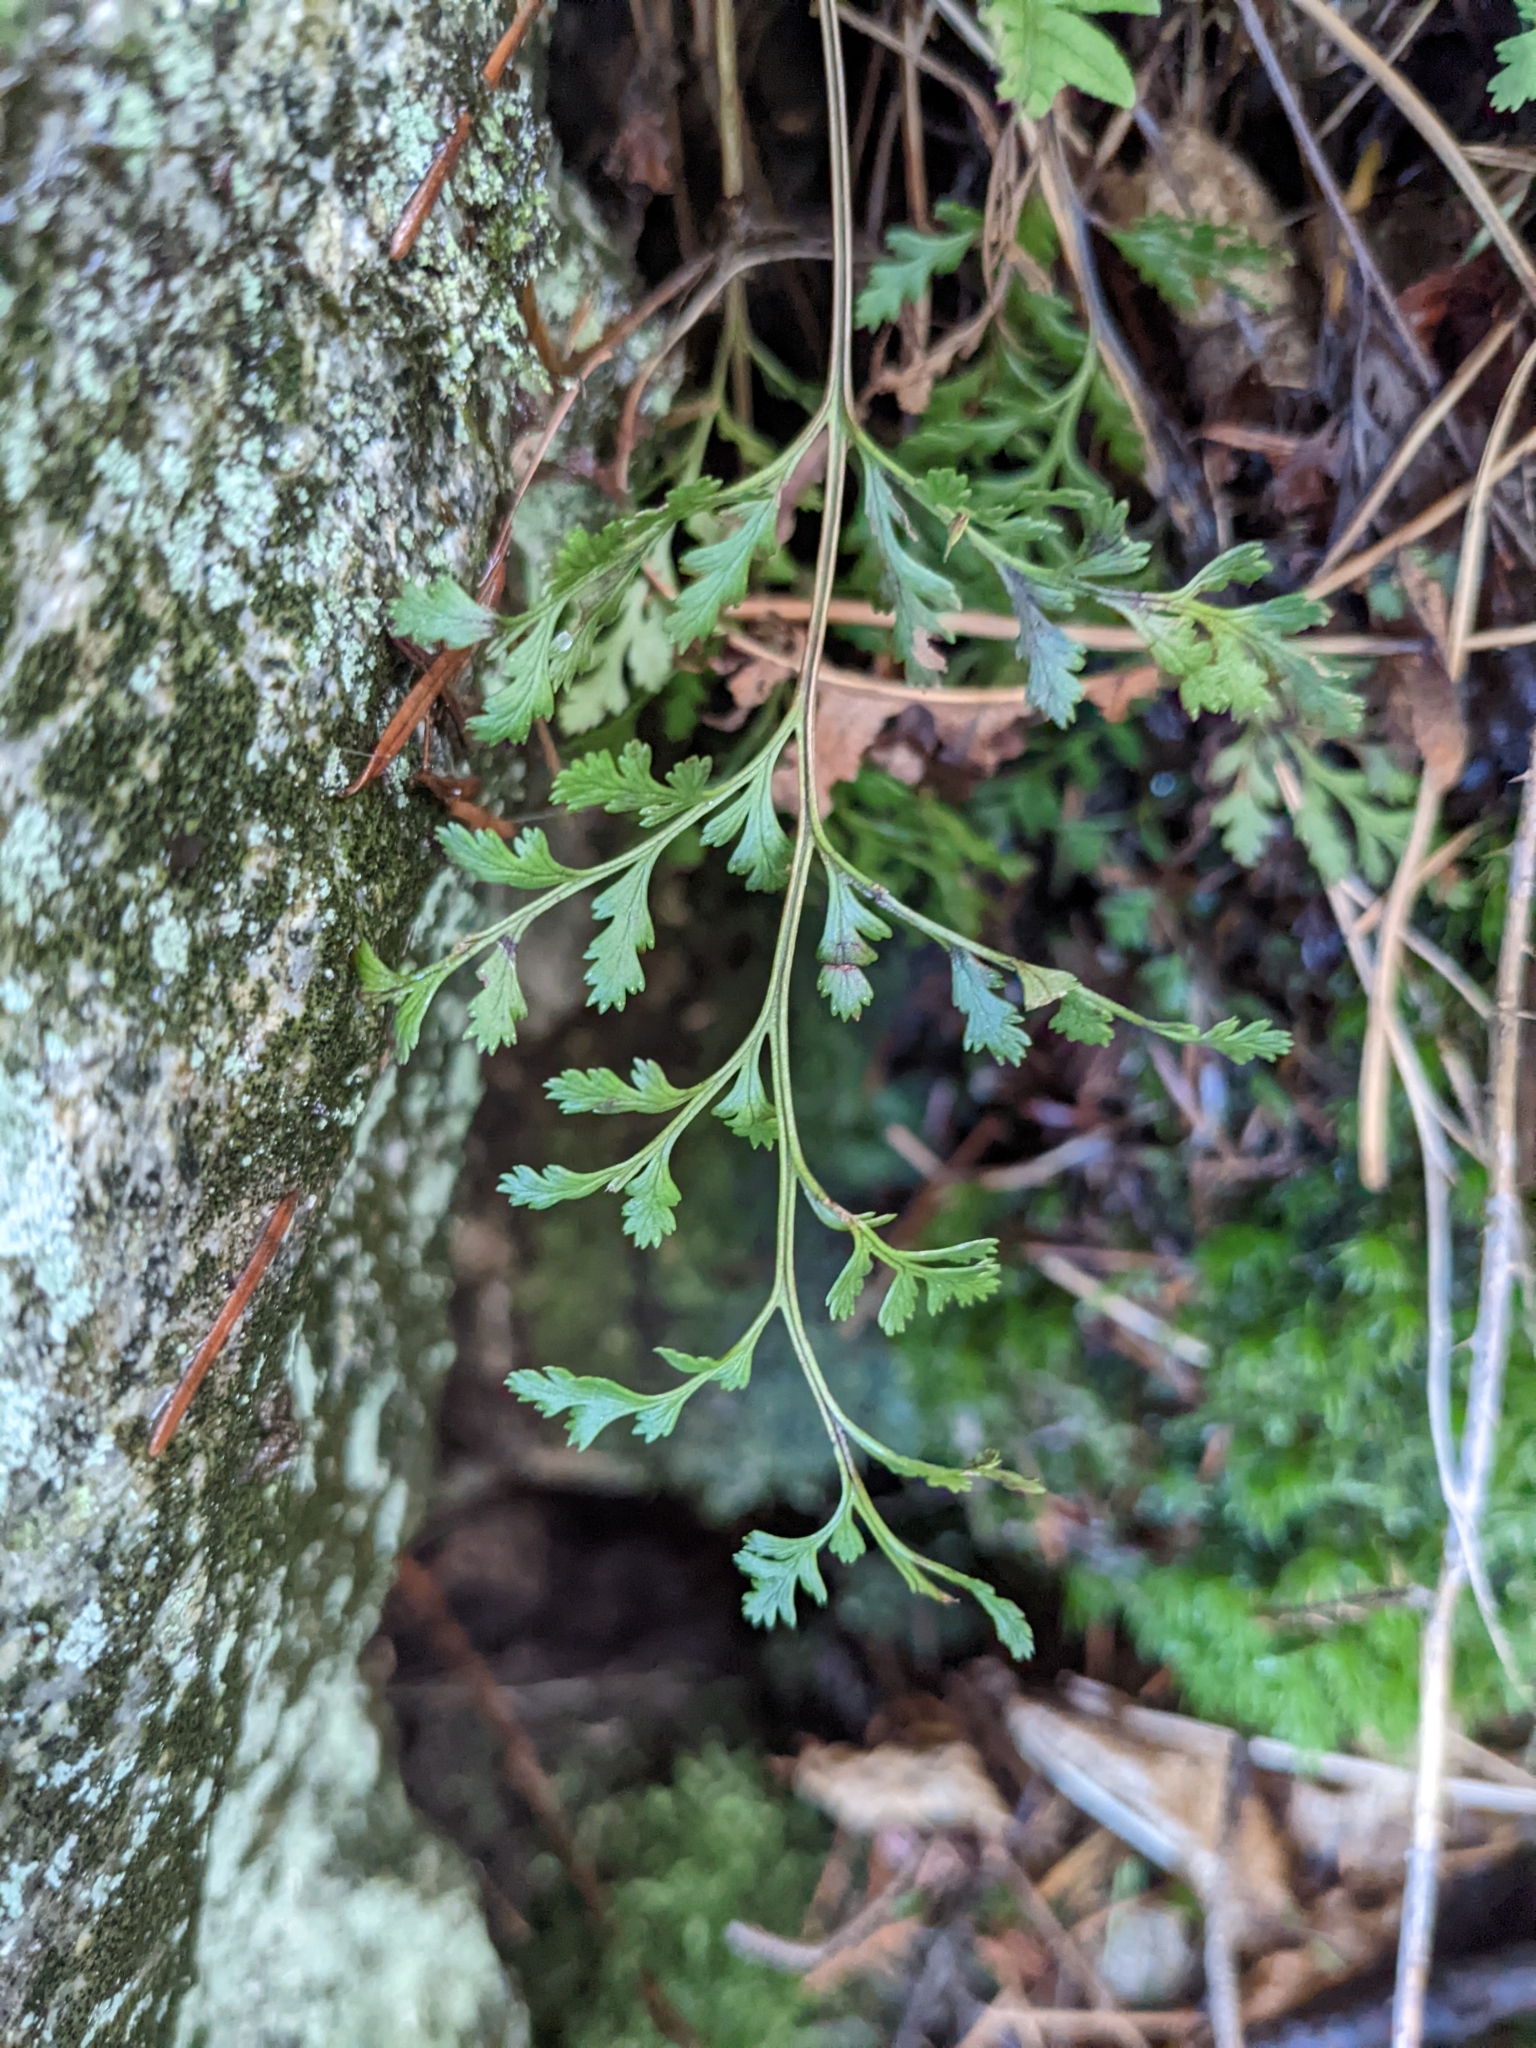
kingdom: Plantae
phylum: Tracheophyta
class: Polypodiopsida
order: Polypodiales
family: Pteridaceae
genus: Cryptogramma
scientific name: Cryptogramma acrostichoides
